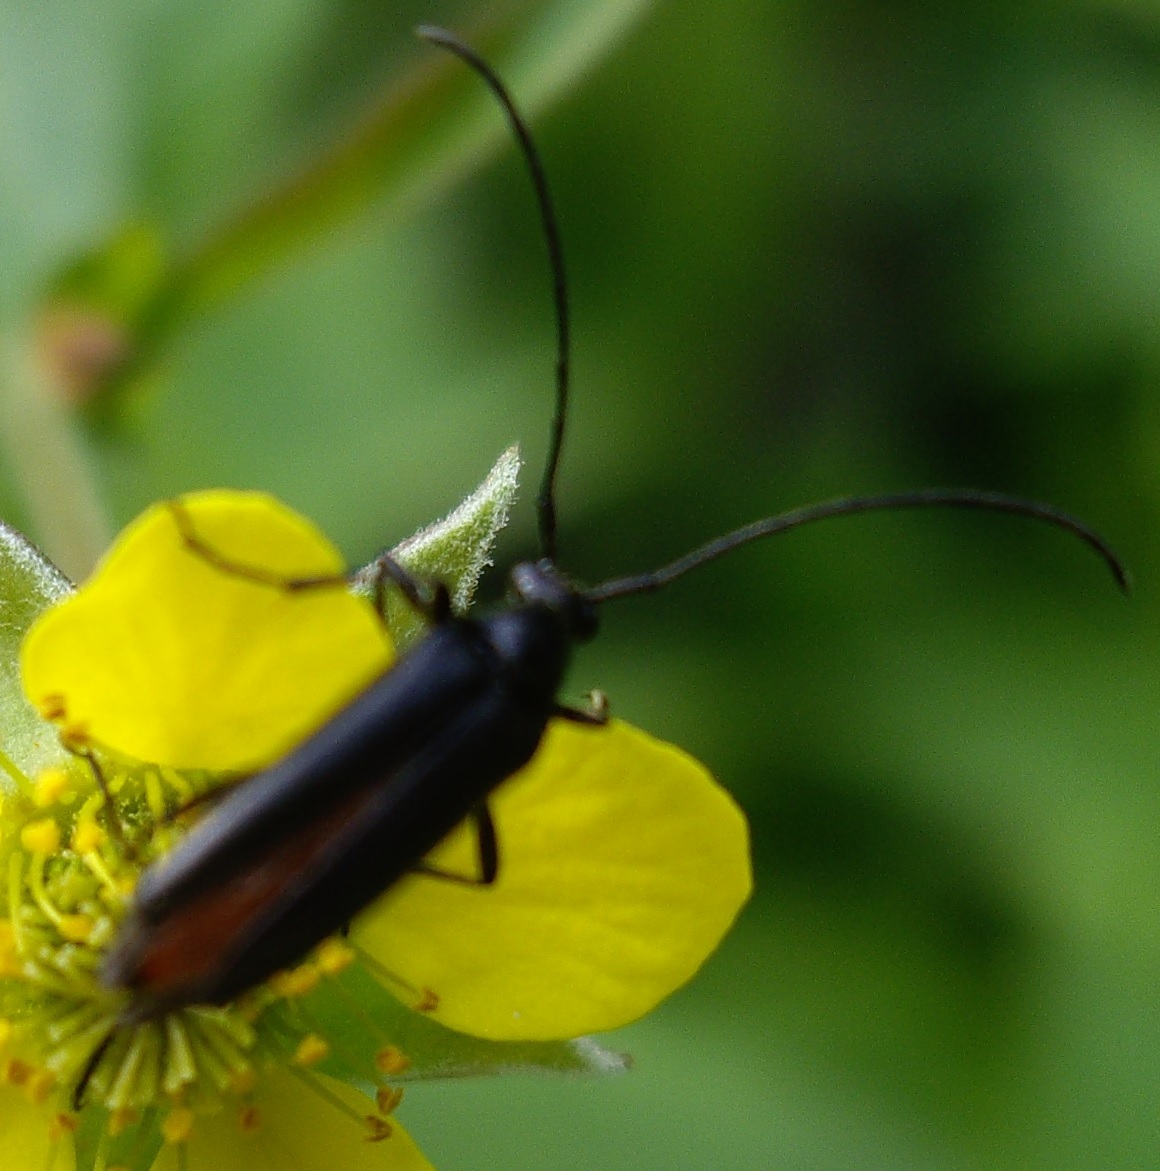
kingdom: Animalia
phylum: Arthropoda
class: Insecta
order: Coleoptera
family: Cerambycidae
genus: Stenurella
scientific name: Stenurella nigra
